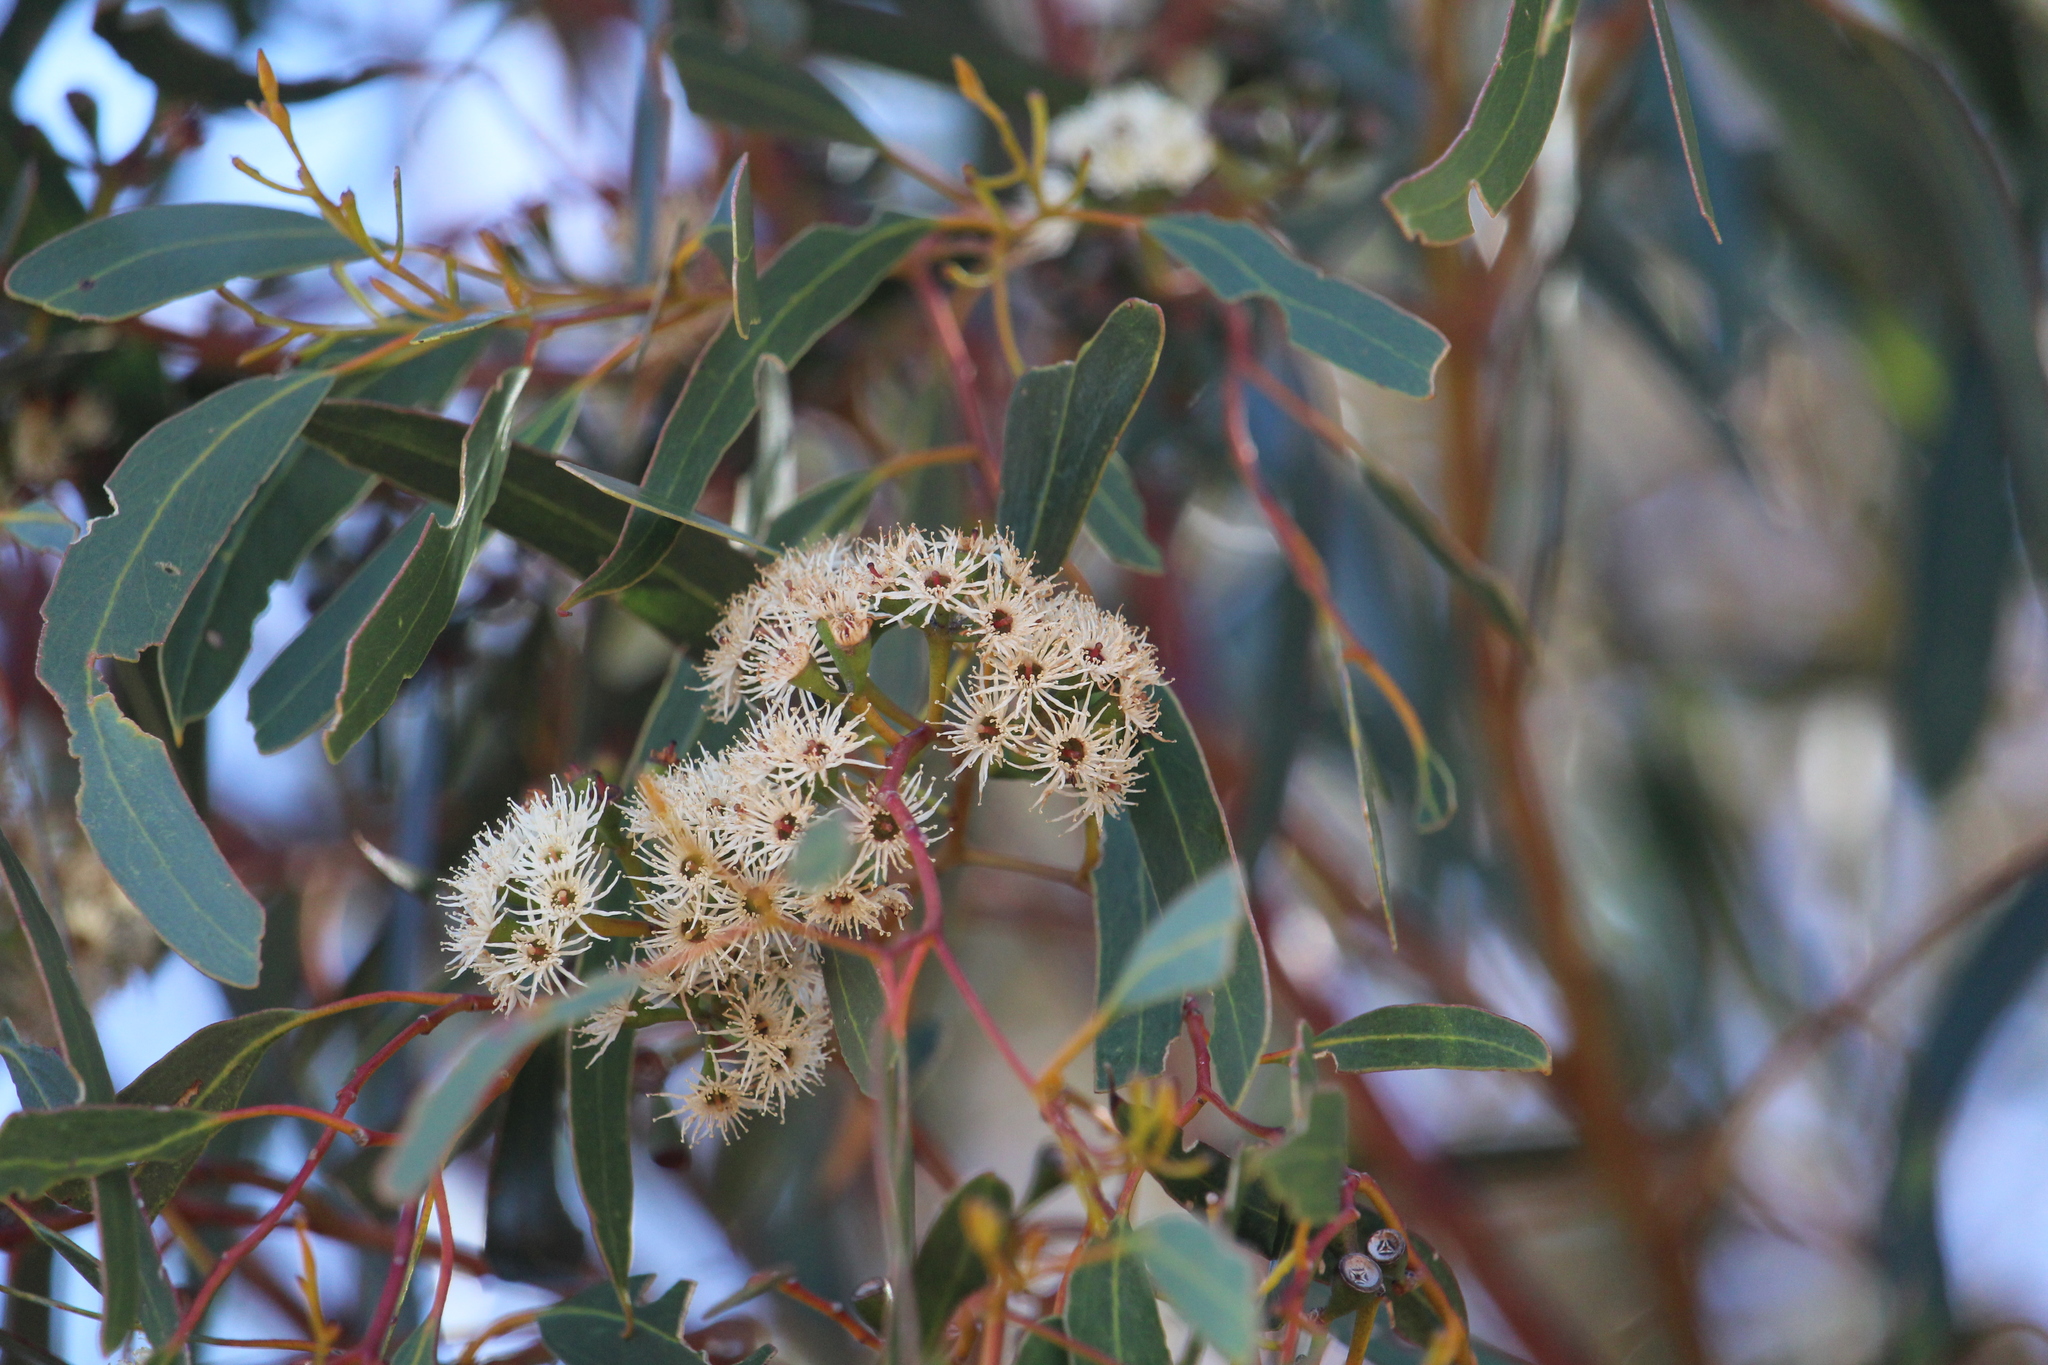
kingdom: Plantae
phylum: Tracheophyta
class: Magnoliopsida
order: Myrtales
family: Myrtaceae
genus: Eucalyptus
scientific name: Eucalyptus loxophleba
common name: York gum
